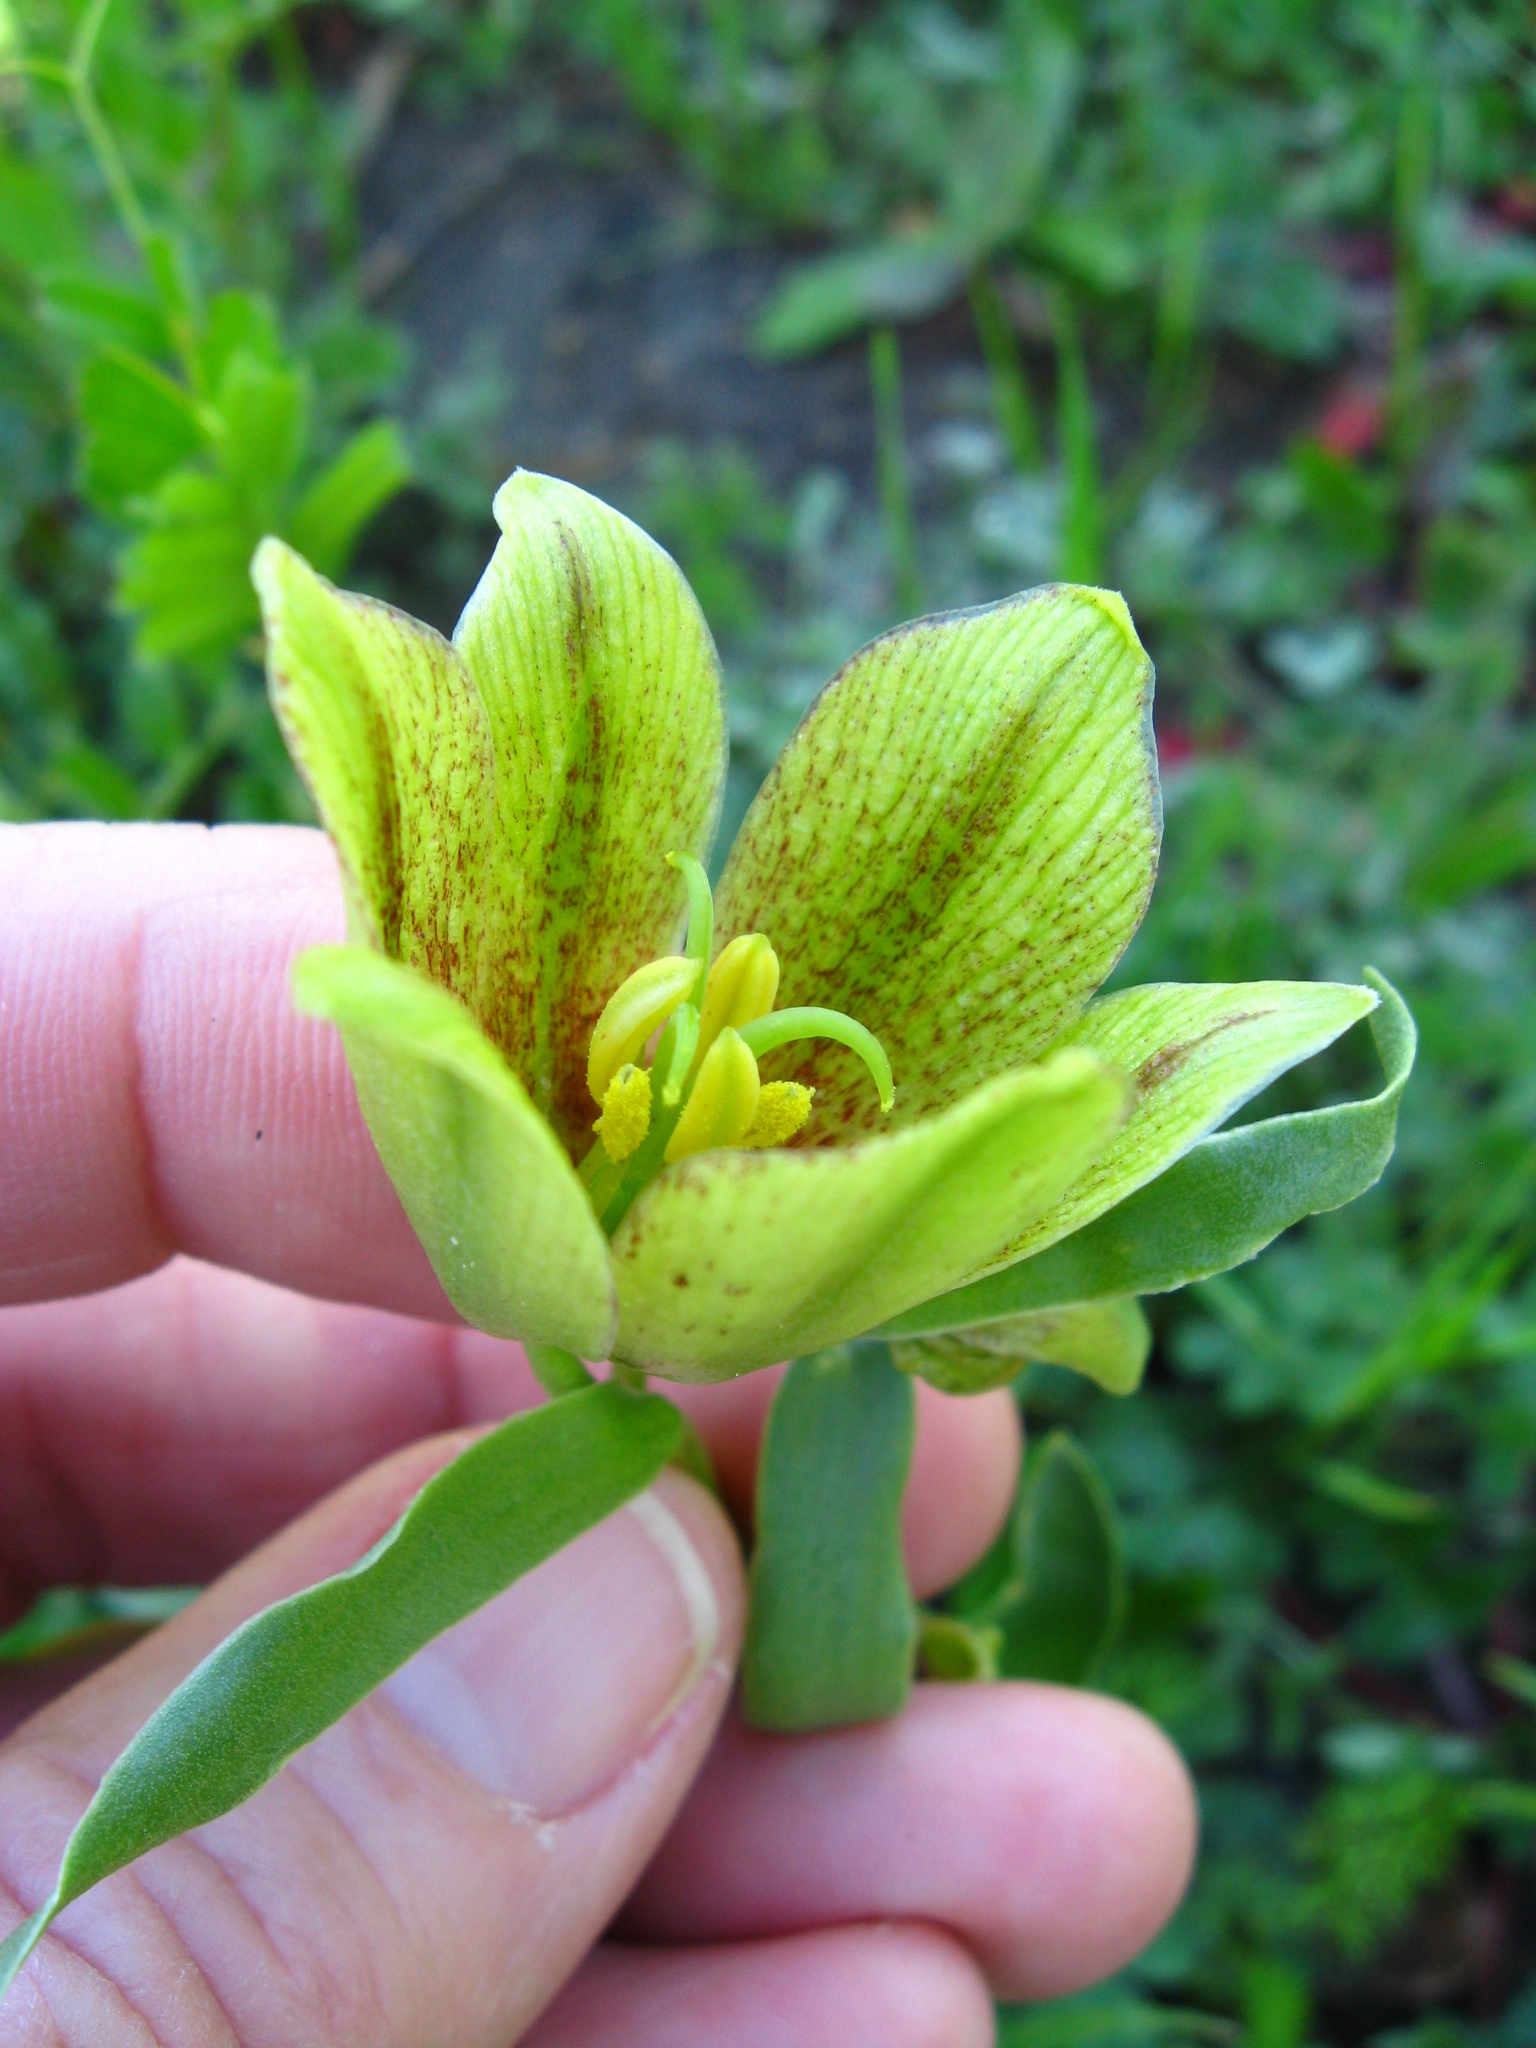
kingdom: Plantae
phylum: Tracheophyta
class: Liliopsida
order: Liliales
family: Liliaceae
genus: Fritillaria
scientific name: Fritillaria agrestis
